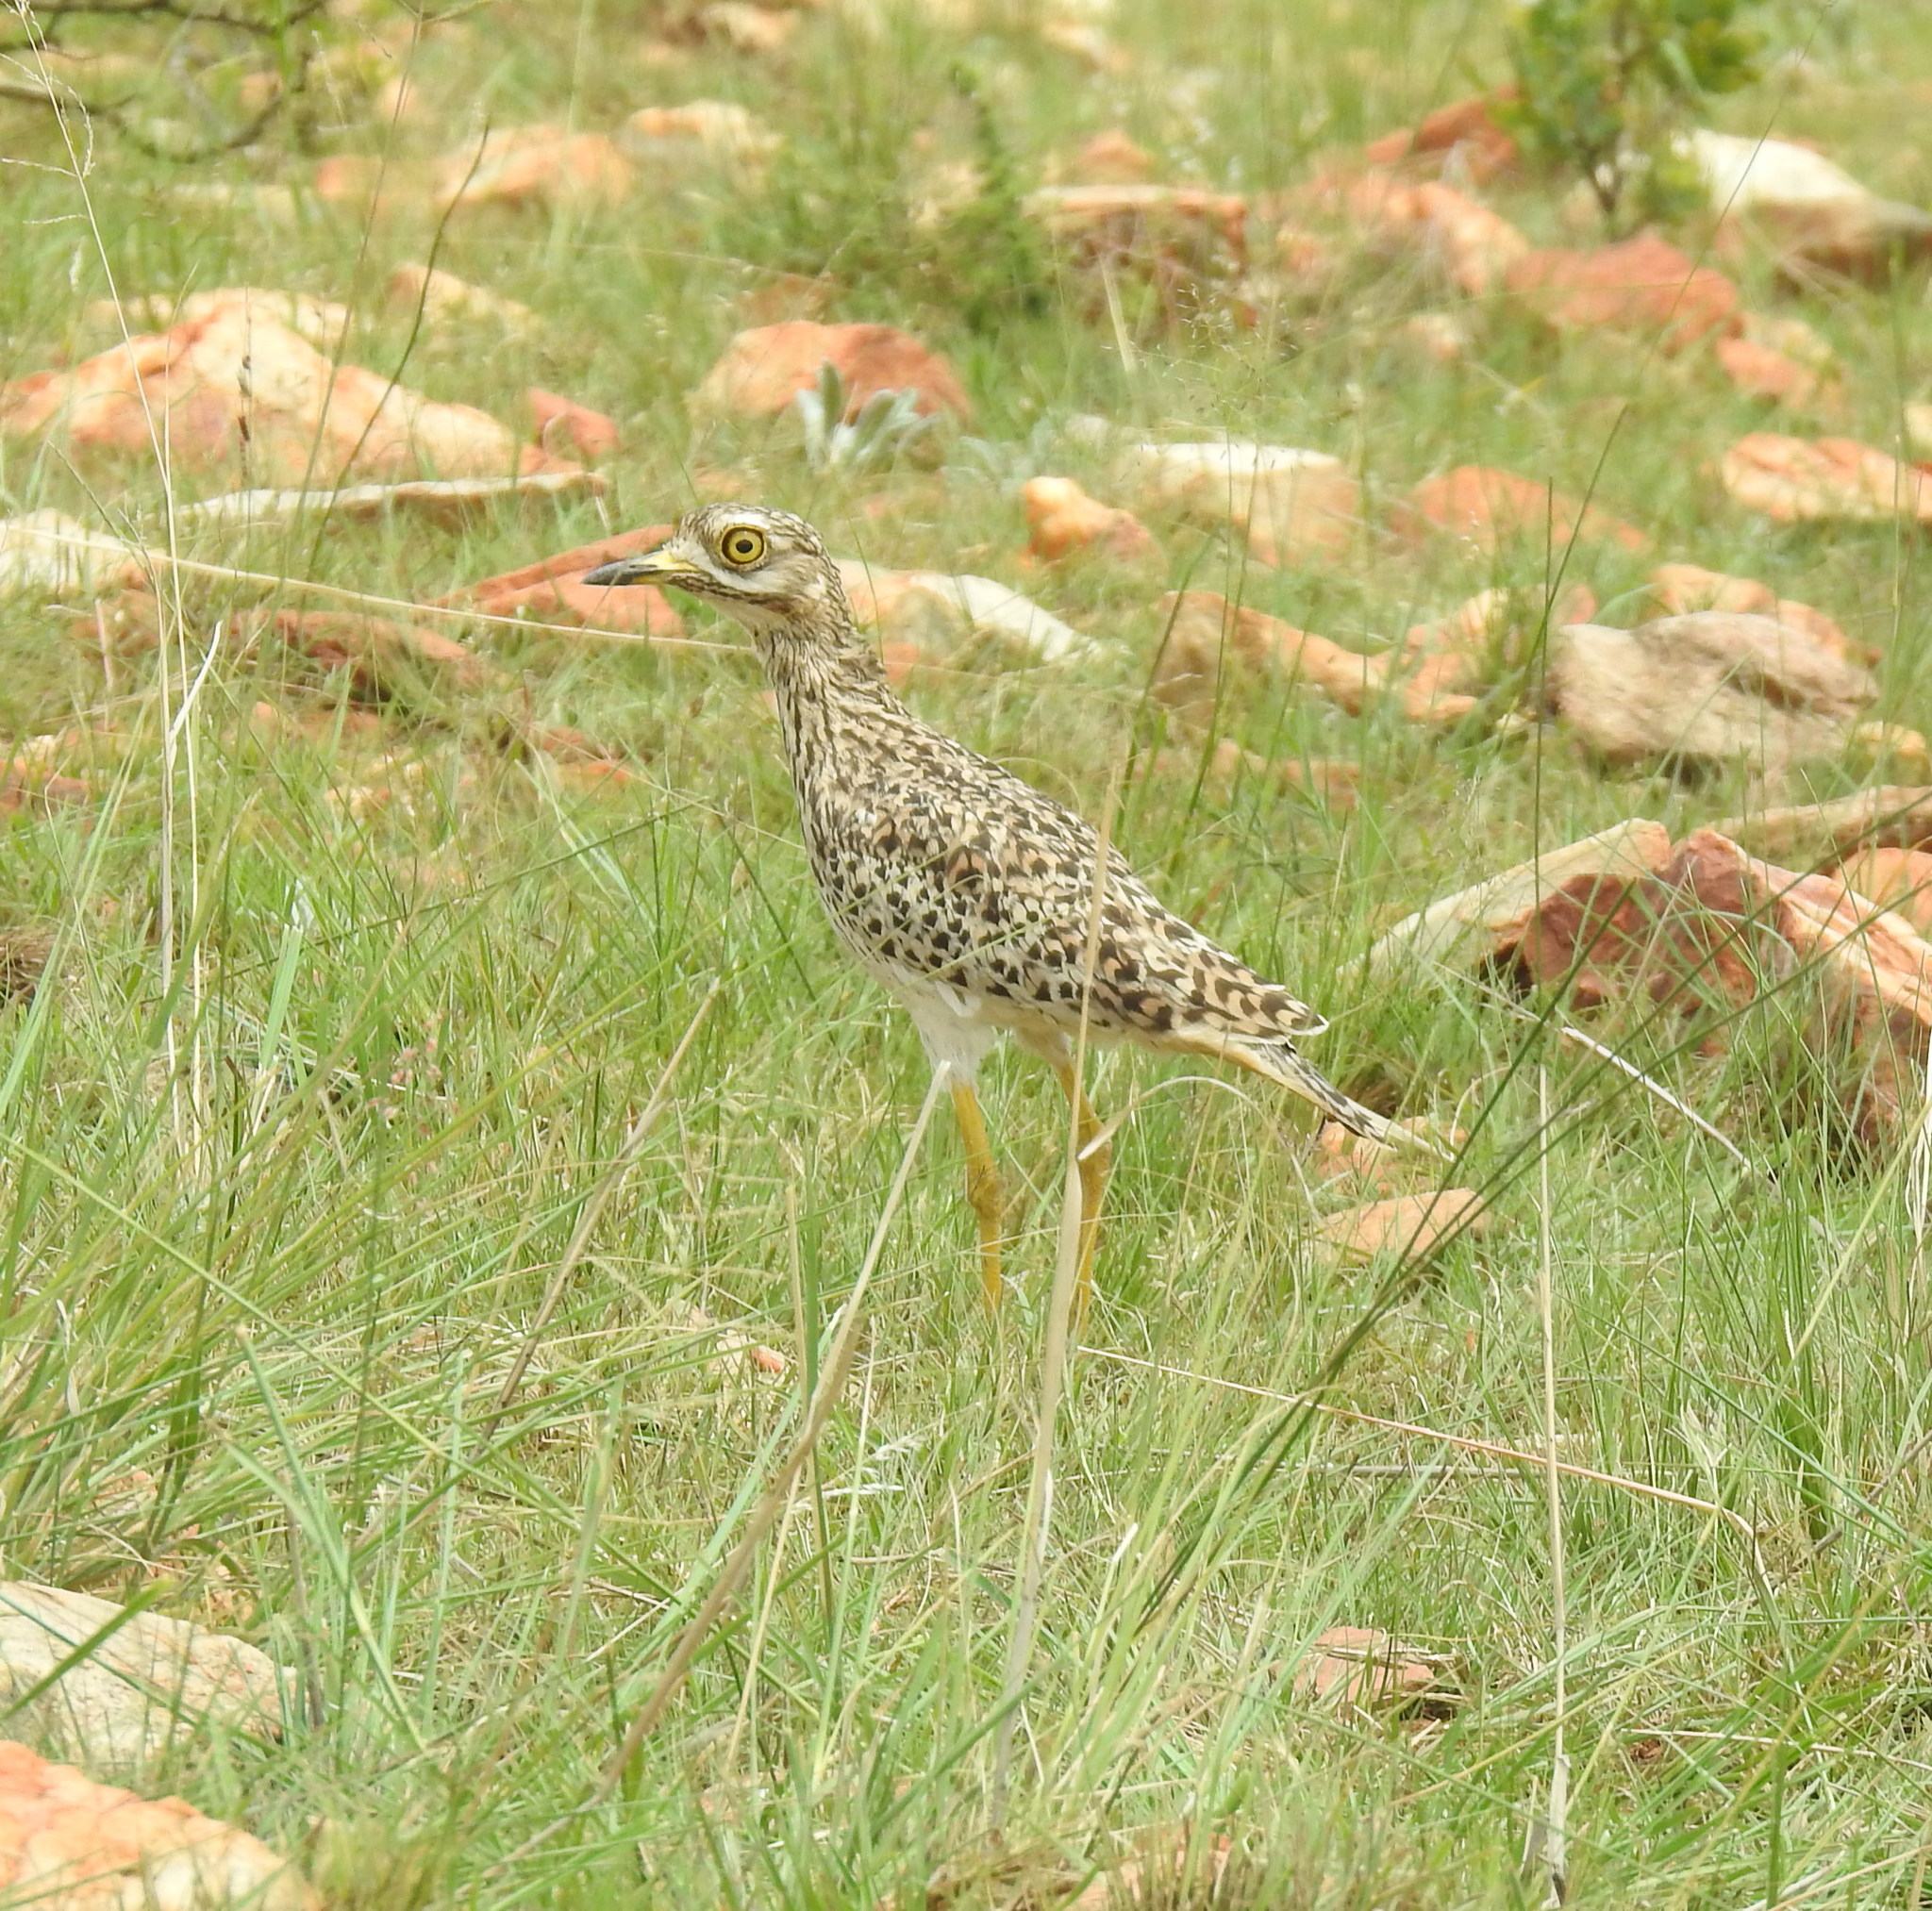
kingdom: Animalia
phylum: Chordata
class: Aves
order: Charadriiformes
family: Burhinidae
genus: Burhinus
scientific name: Burhinus capensis
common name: Spotted thick-knee
